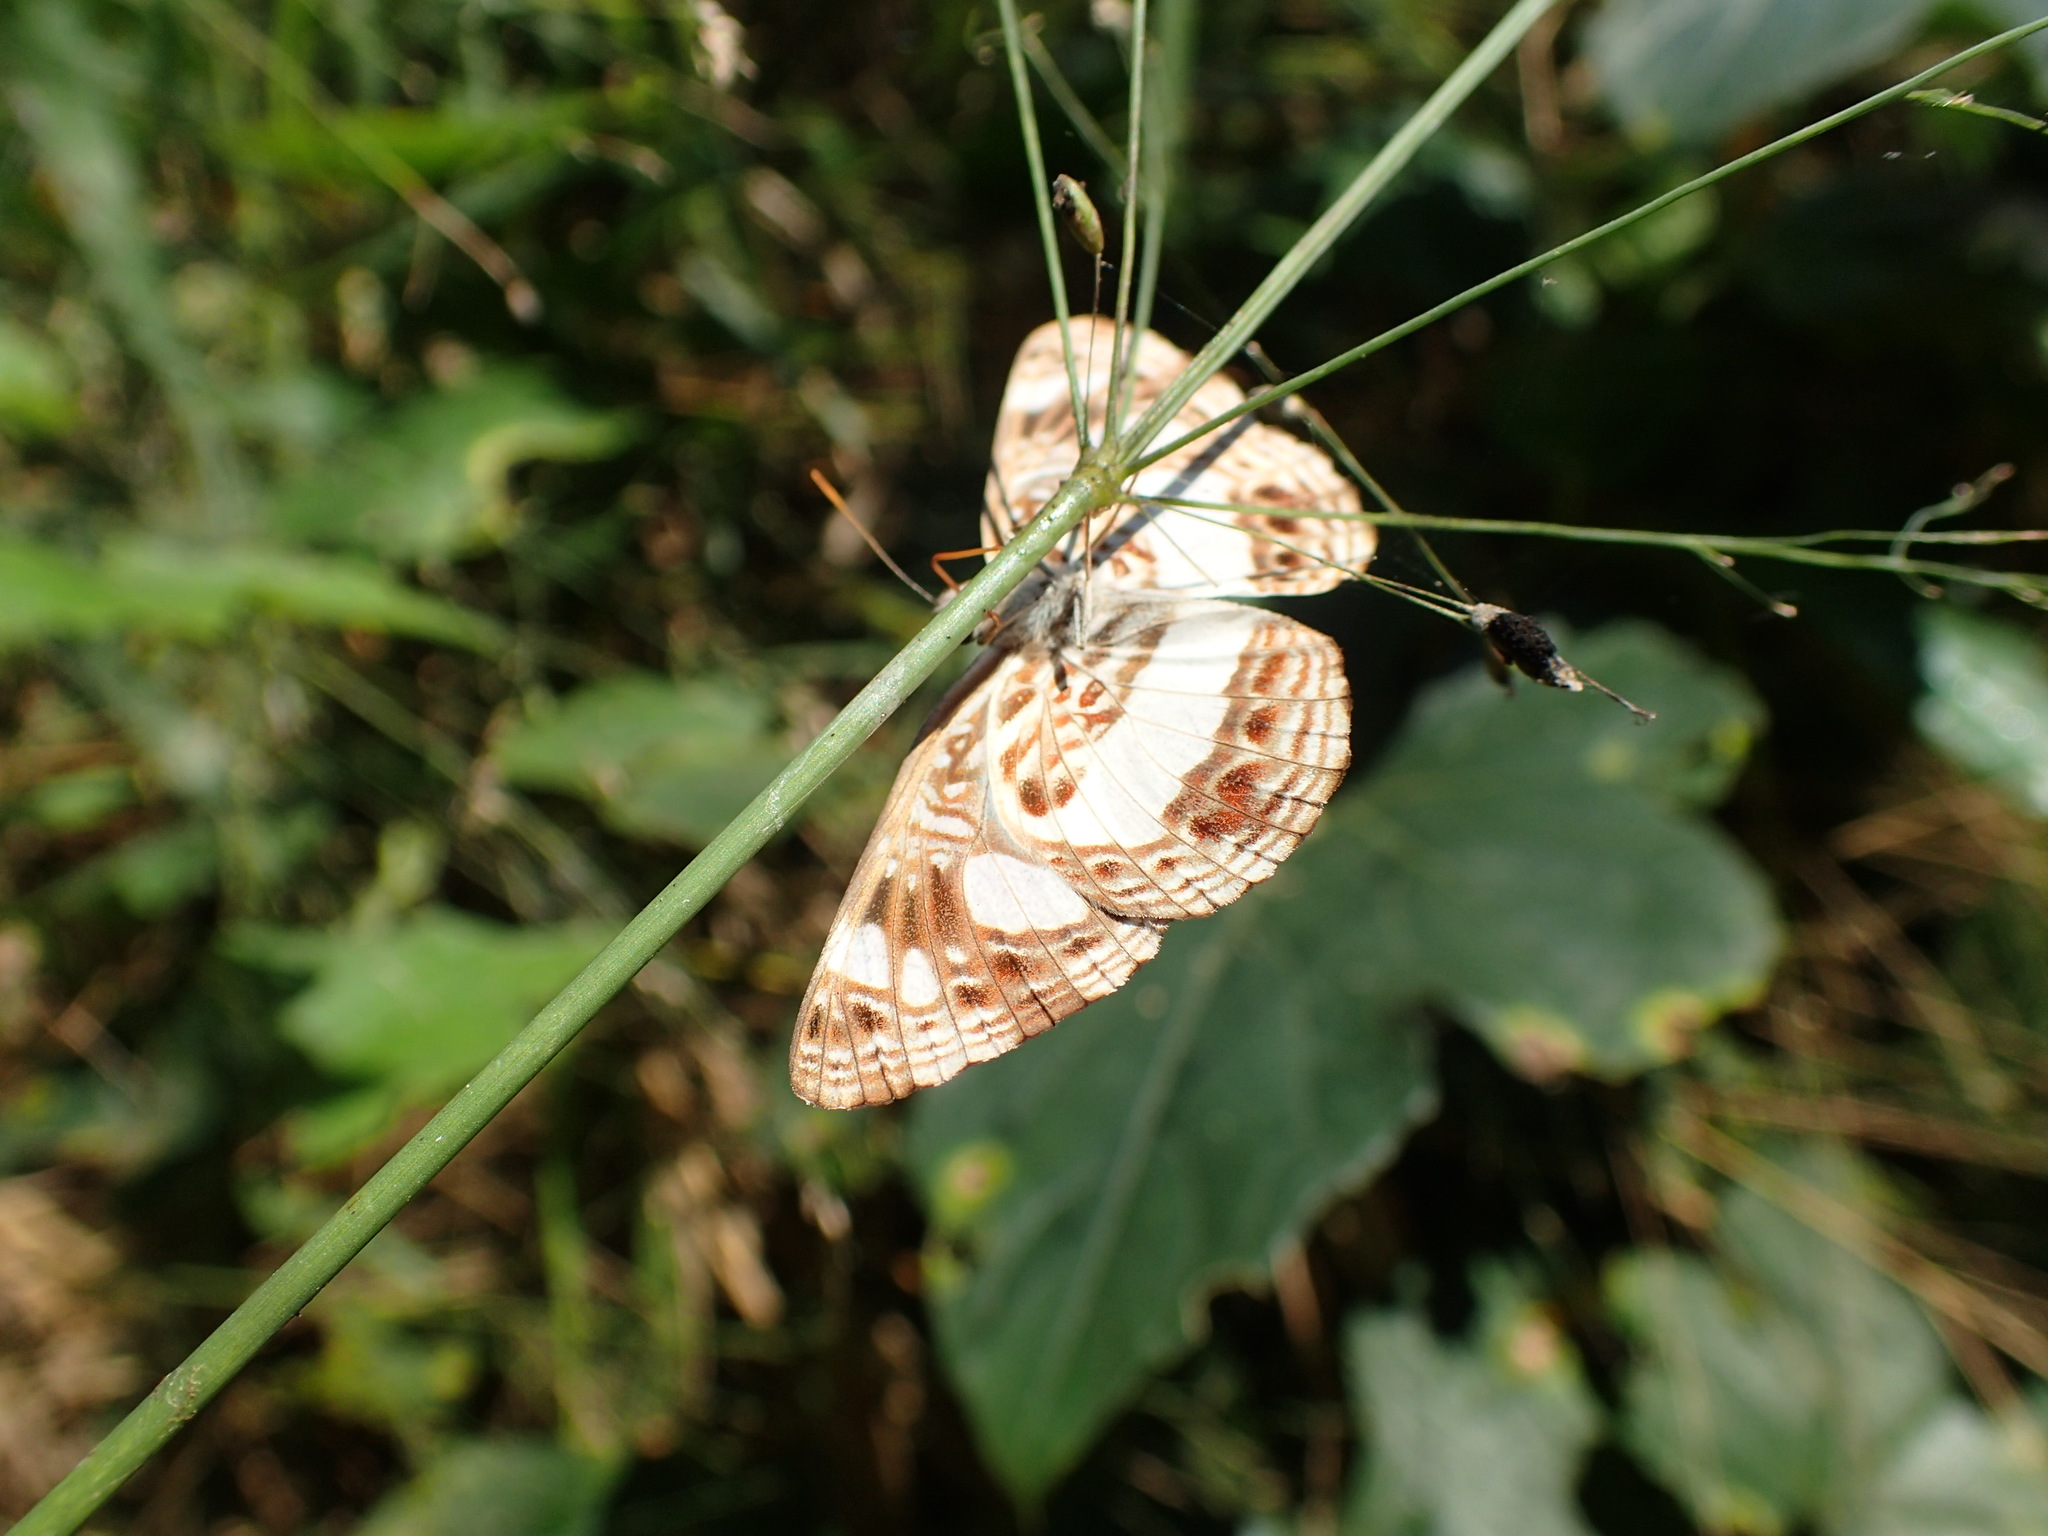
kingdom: Animalia
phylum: Arthropoda
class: Insecta
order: Lepidoptera
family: Nymphalidae
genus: Neptis
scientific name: Neptis saclava
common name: Small spotted sailor
